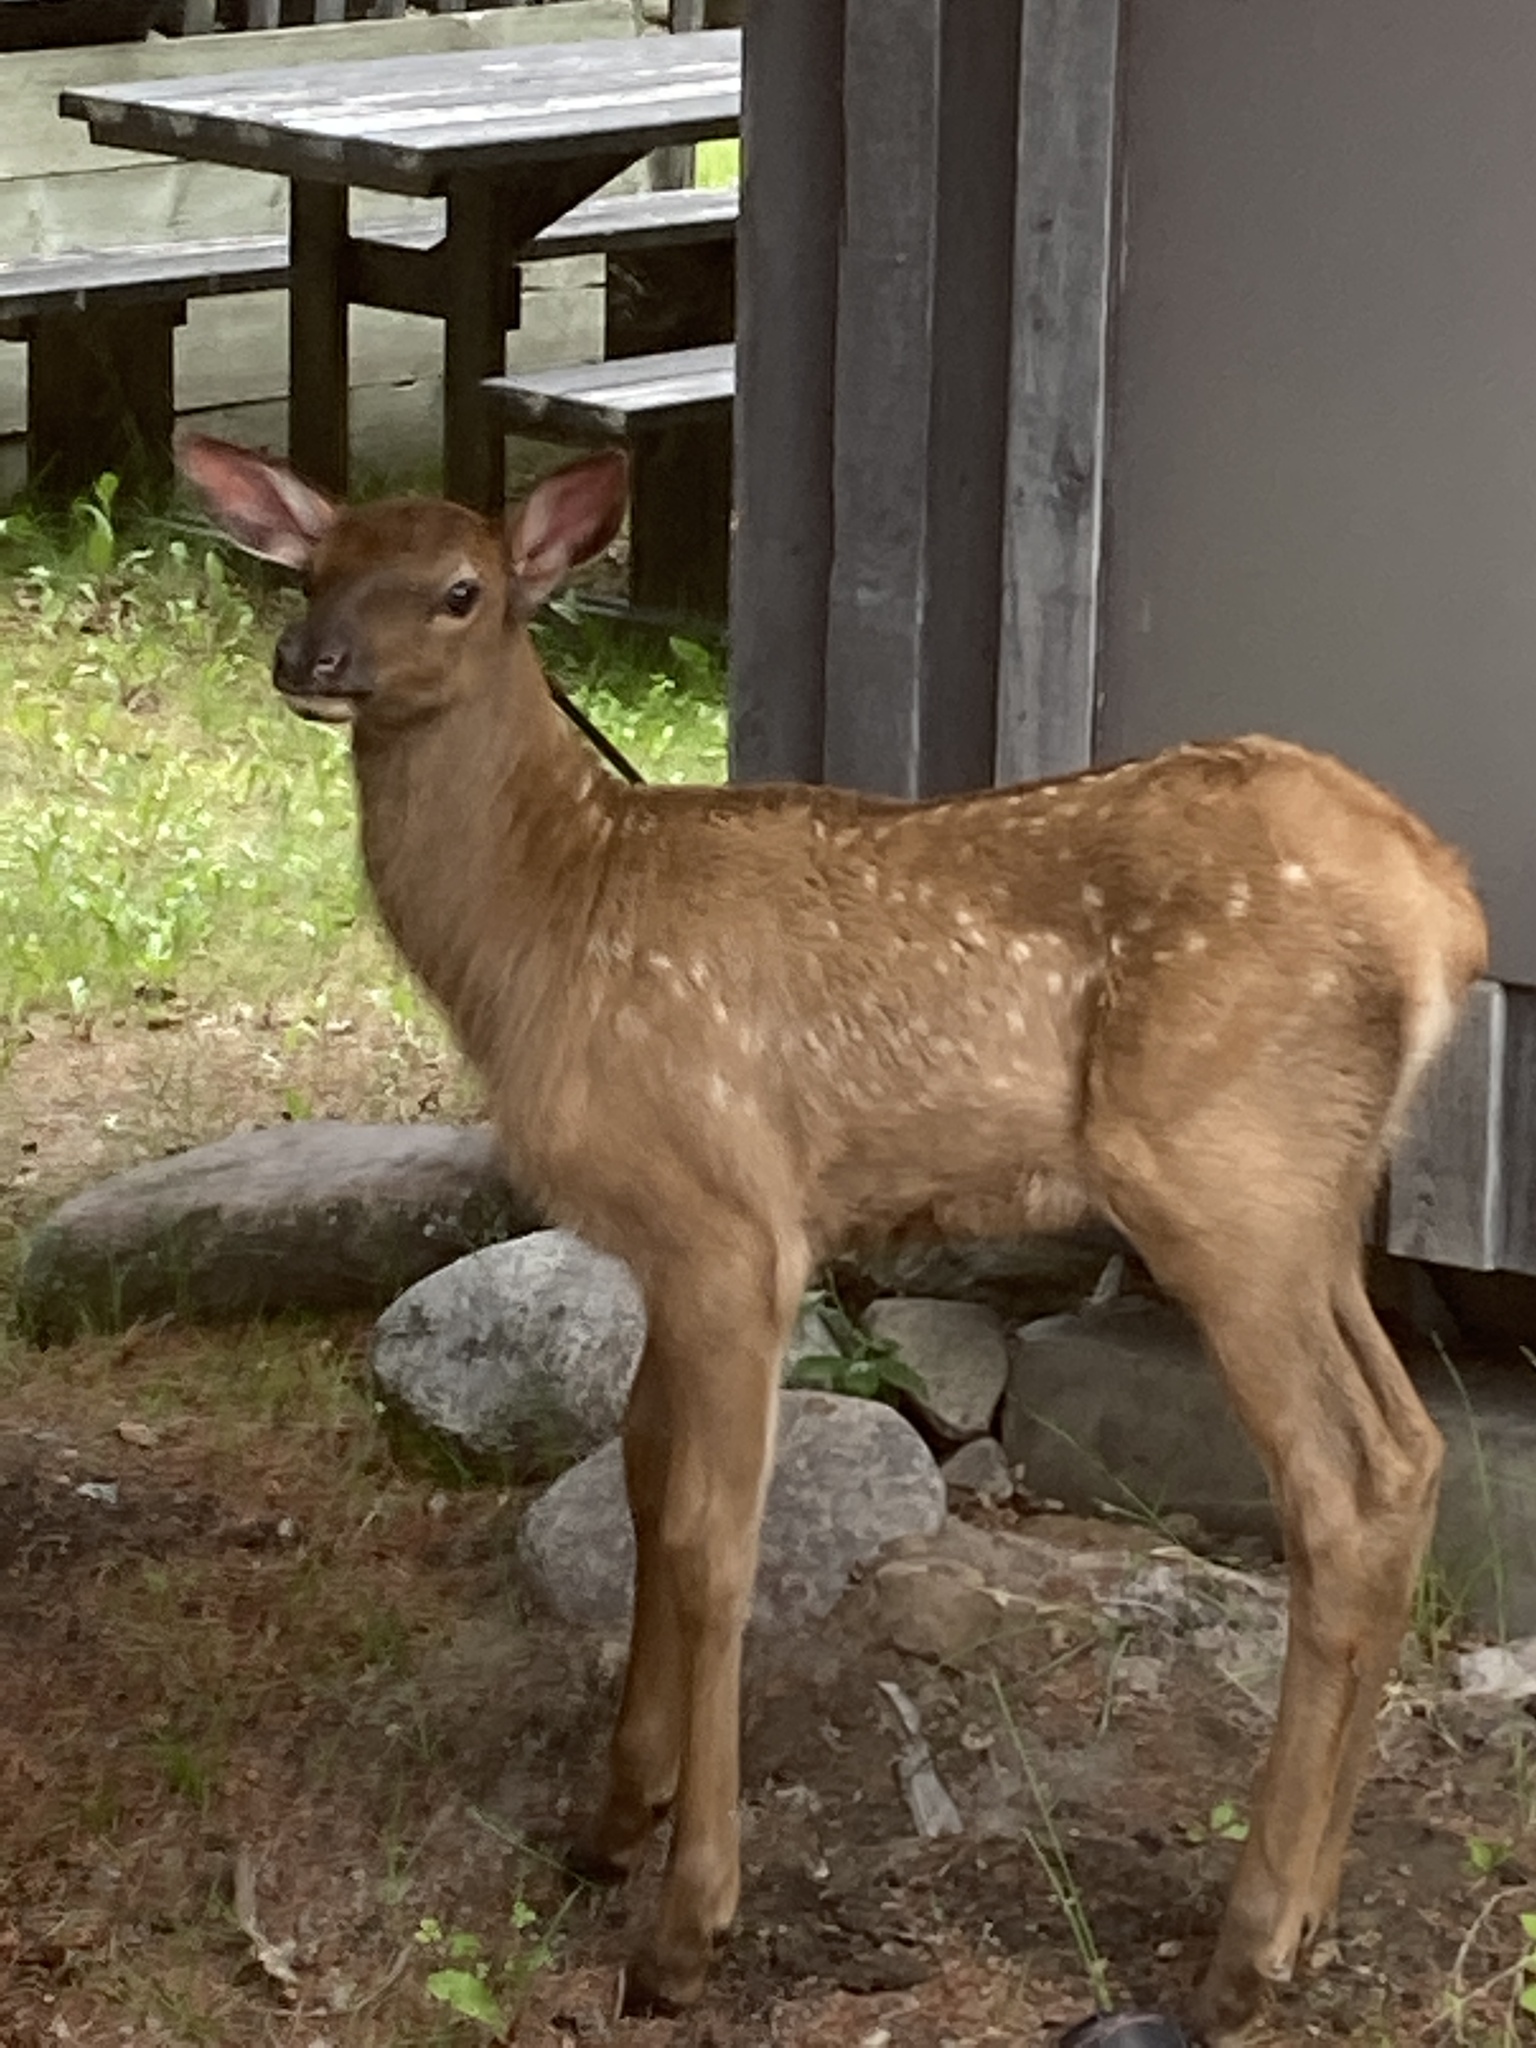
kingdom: Animalia
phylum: Chordata
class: Mammalia
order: Artiodactyla
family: Cervidae
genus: Cervus
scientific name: Cervus elaphus
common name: Red deer
